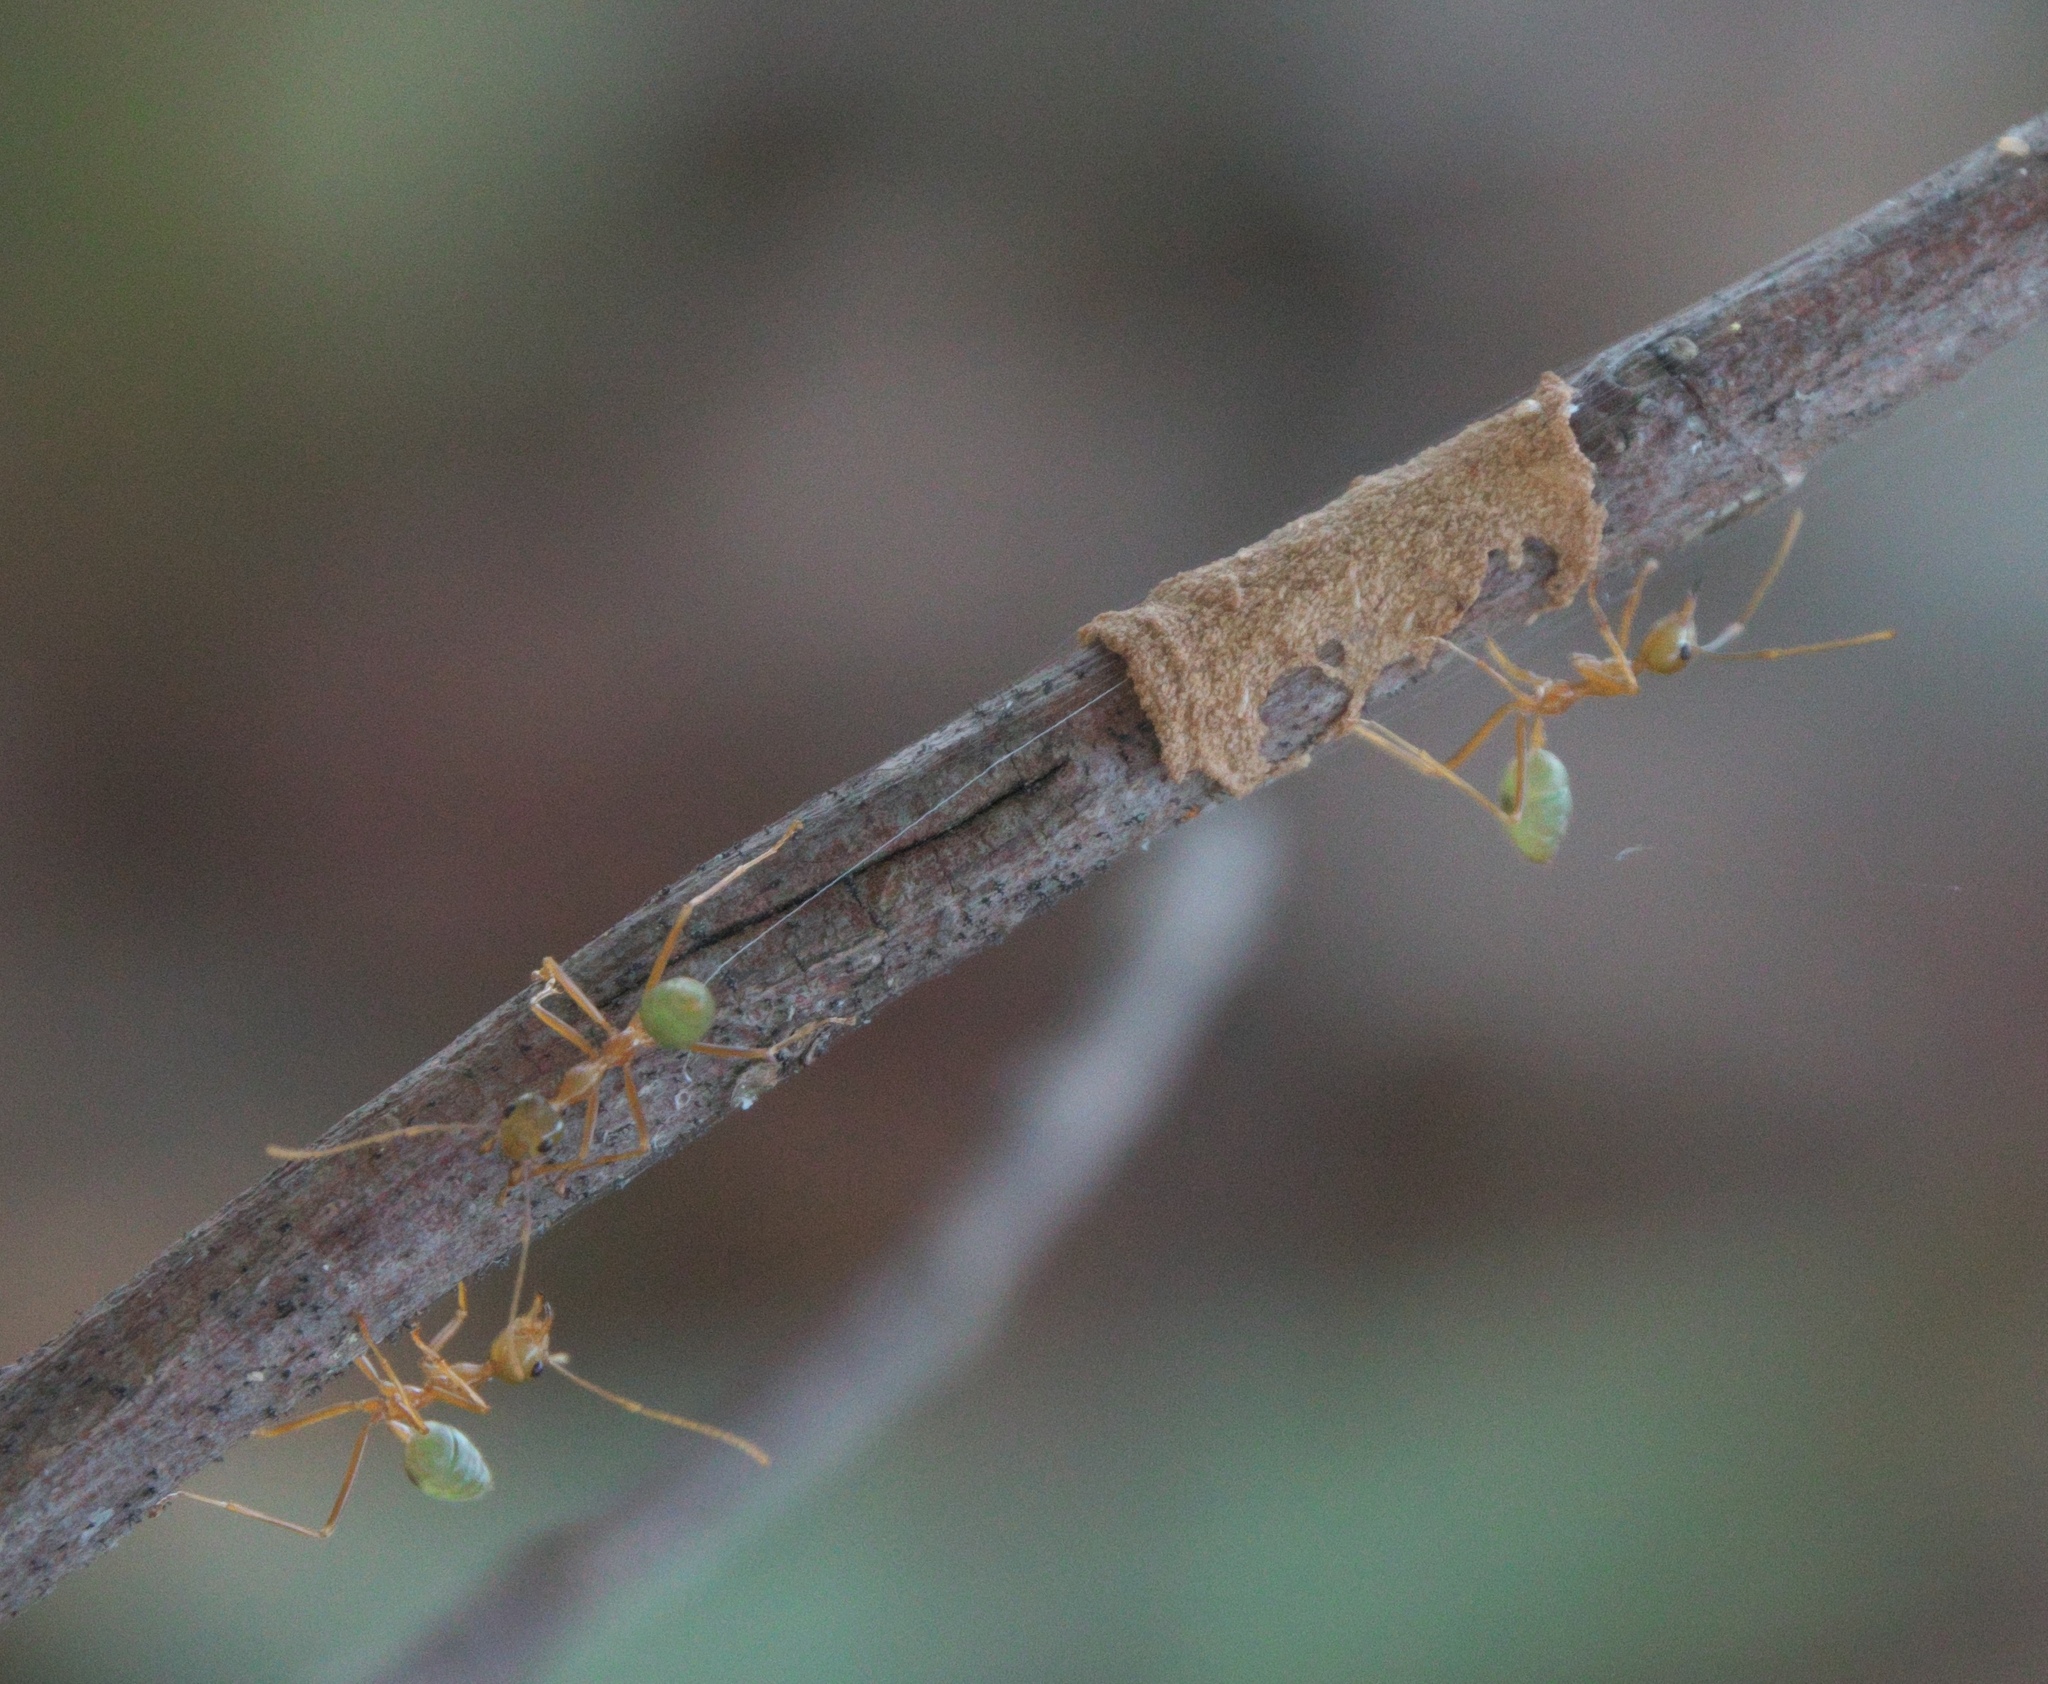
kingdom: Animalia
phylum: Arthropoda
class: Insecta
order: Hymenoptera
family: Formicidae
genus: Oecophylla
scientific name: Oecophylla smaragdina
